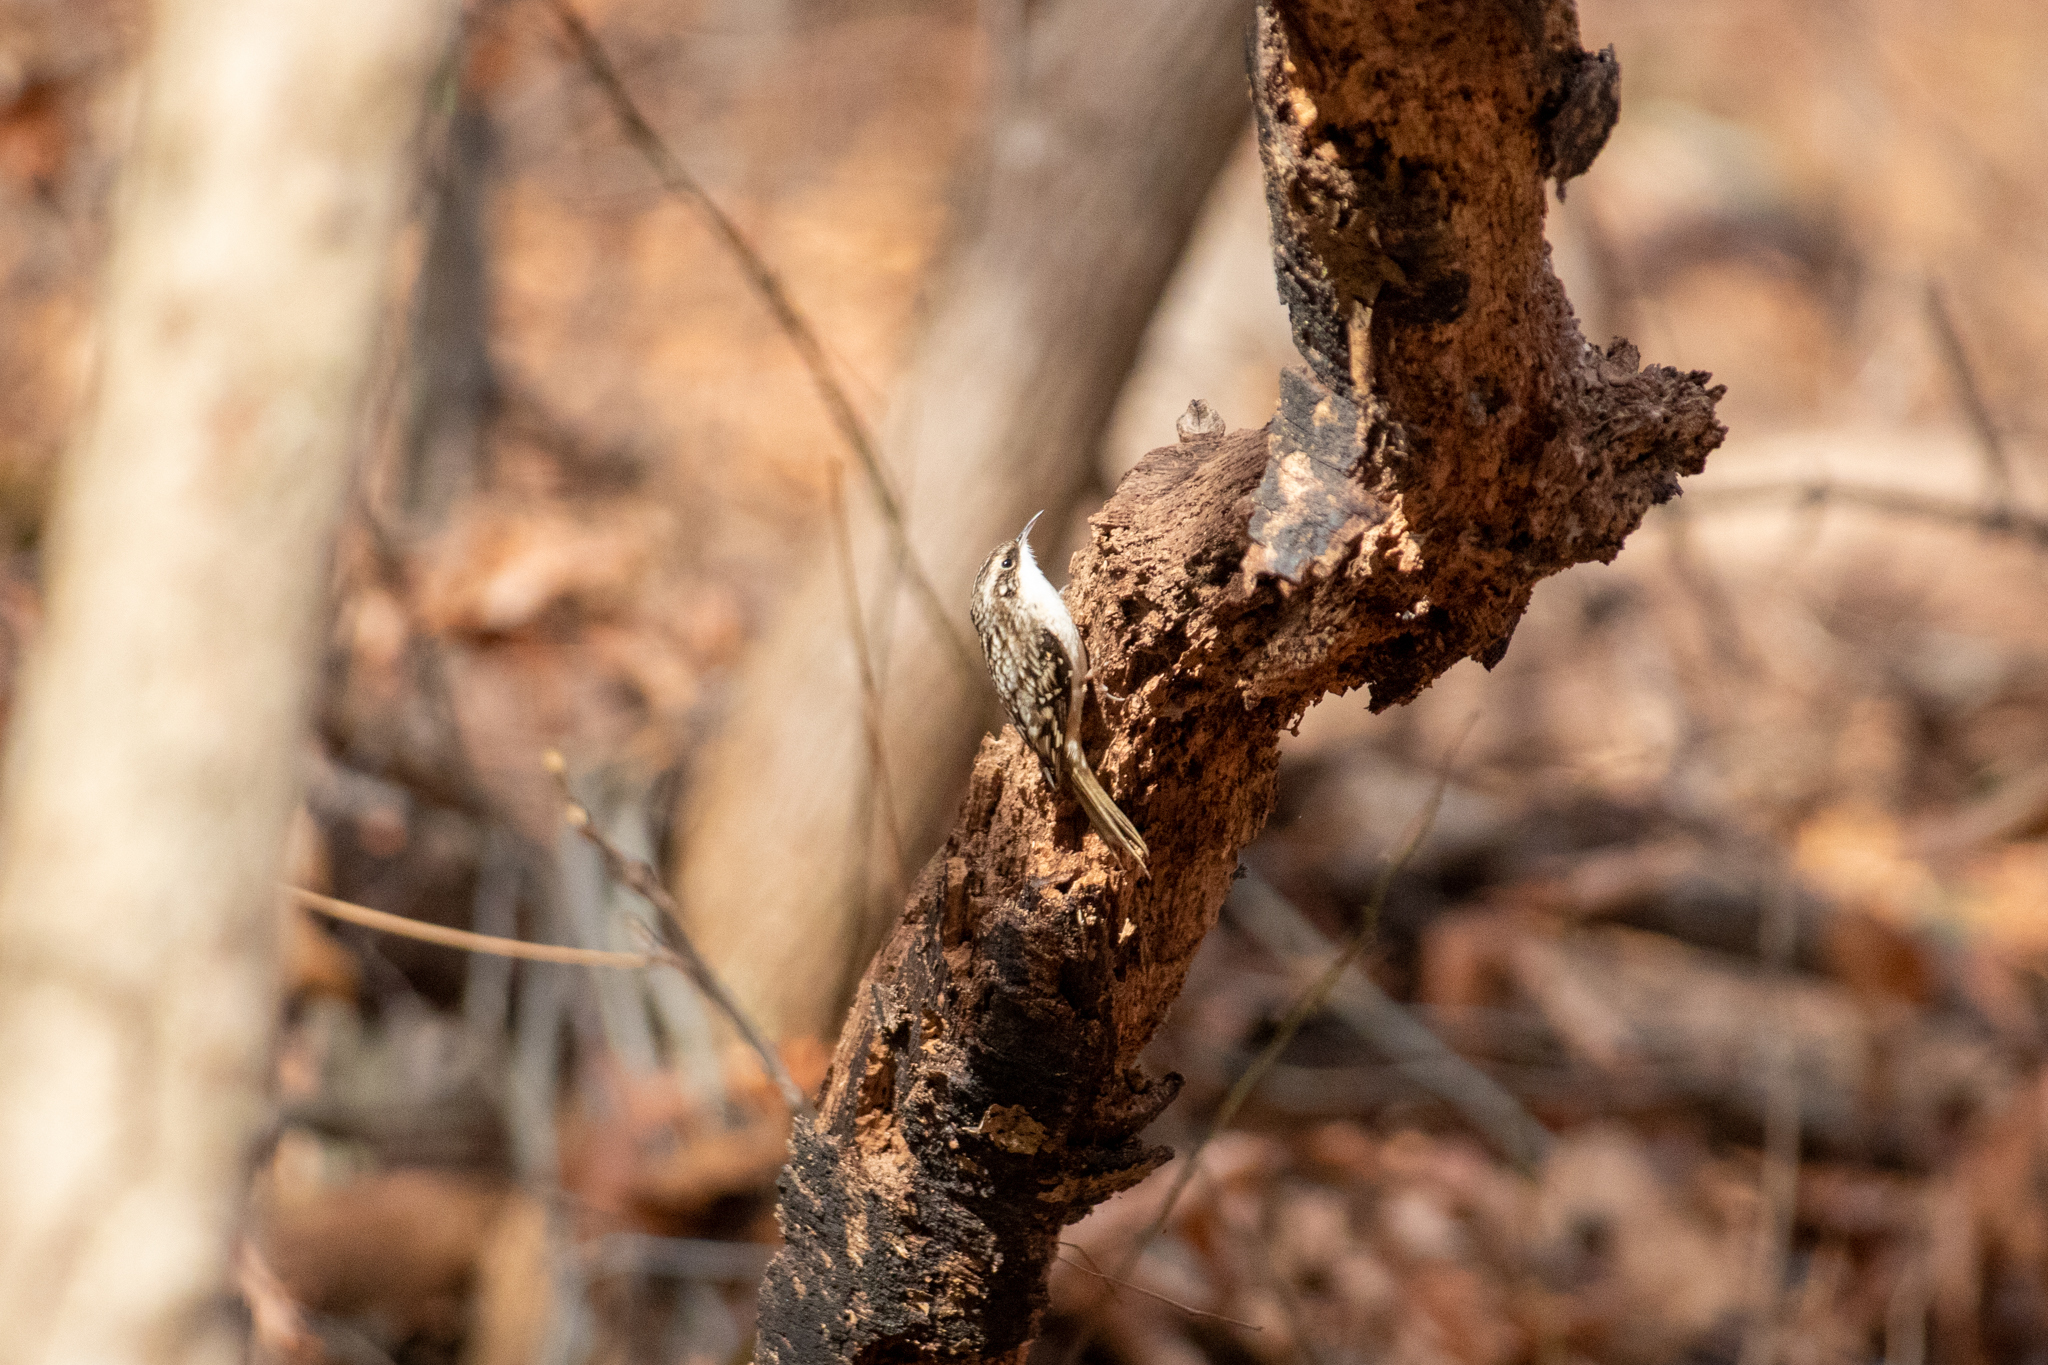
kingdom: Animalia
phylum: Chordata
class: Aves
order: Passeriformes
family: Certhiidae
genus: Certhia
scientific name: Certhia americana
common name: Brown creeper
